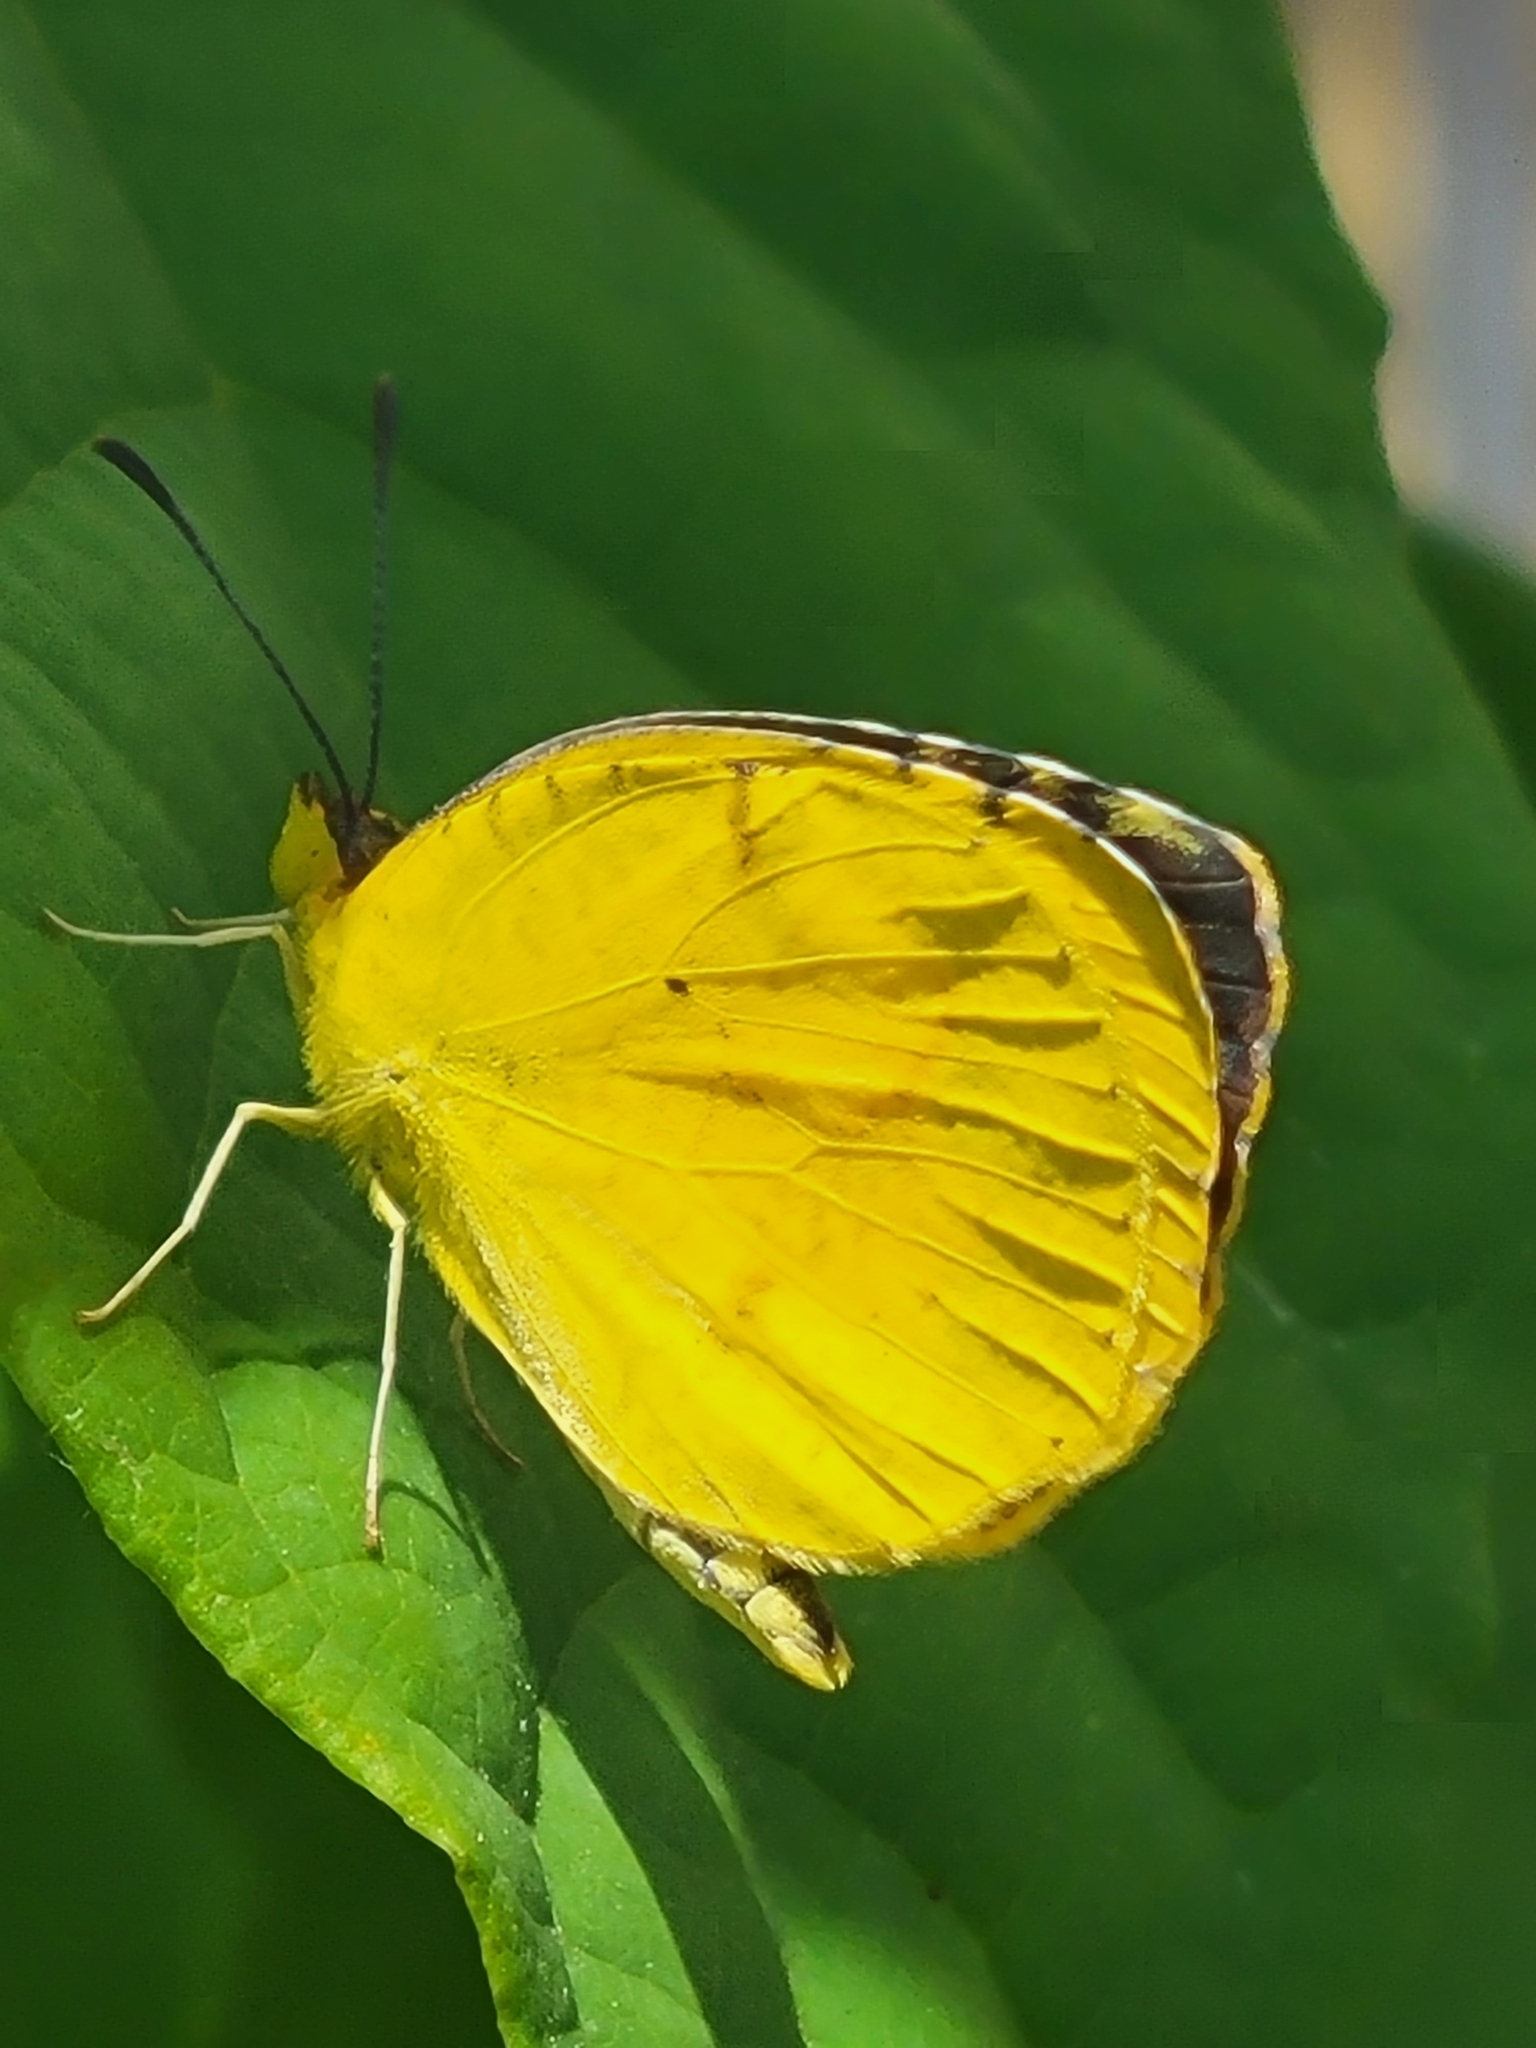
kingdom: Animalia
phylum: Arthropoda
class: Insecta
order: Lepidoptera
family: Pieridae
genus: Abaeis
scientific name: Abaeis nicippe
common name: Sleepy orange
